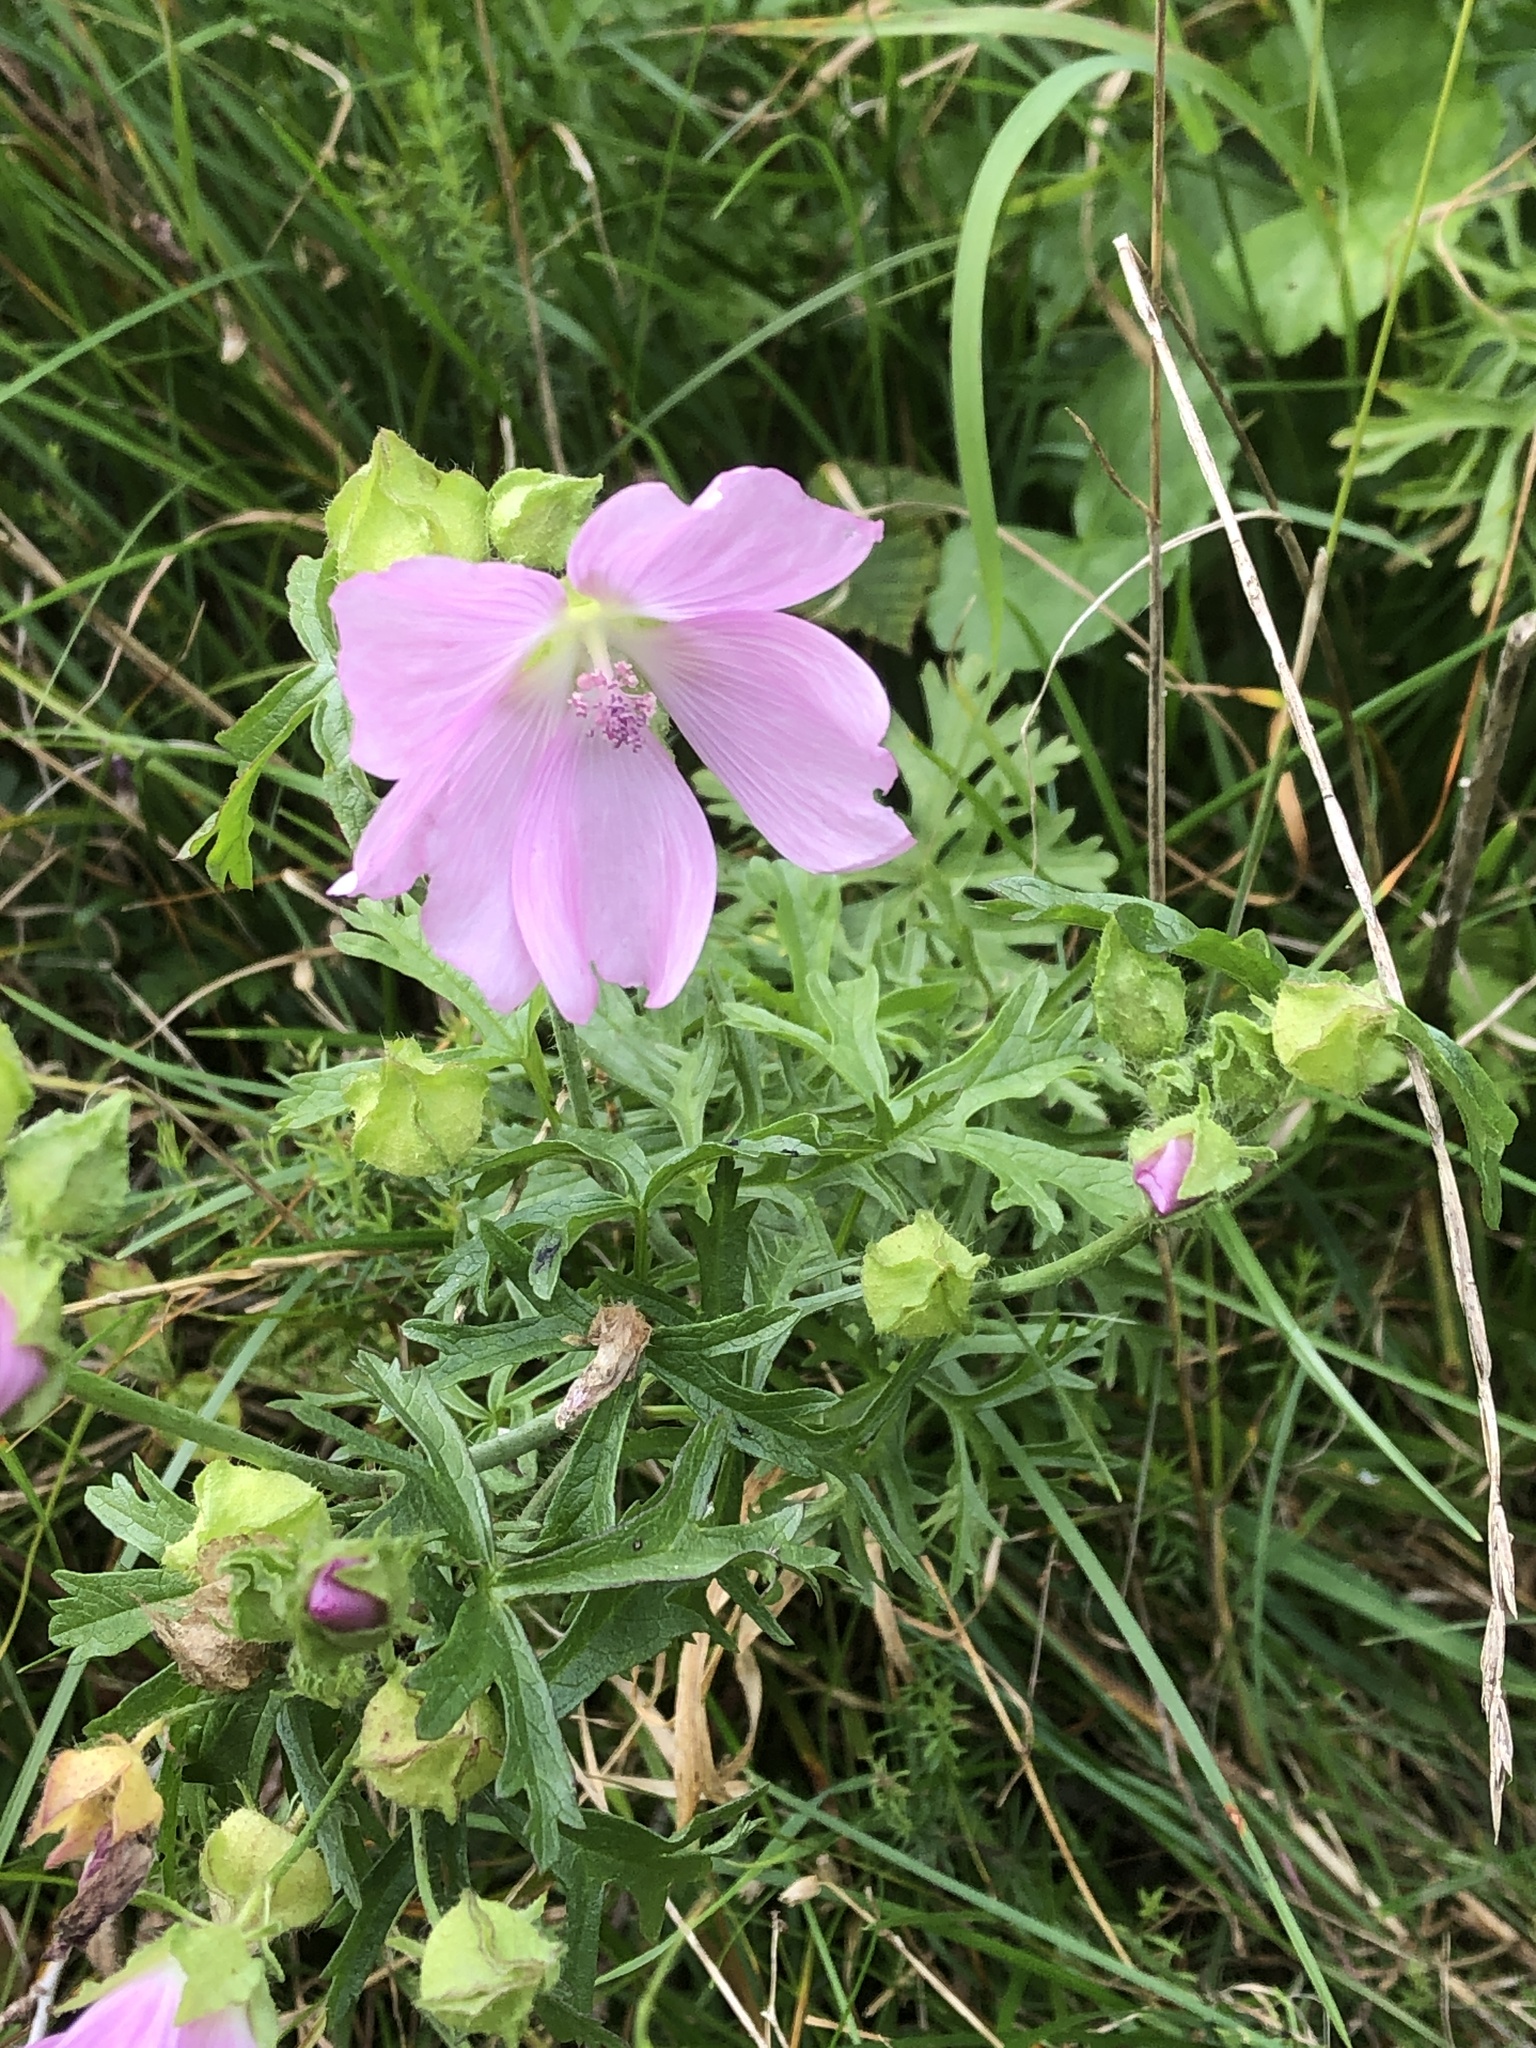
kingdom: Plantae
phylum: Tracheophyta
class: Magnoliopsida
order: Malvales
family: Malvaceae
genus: Malva
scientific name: Malva moschata
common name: Musk mallow
